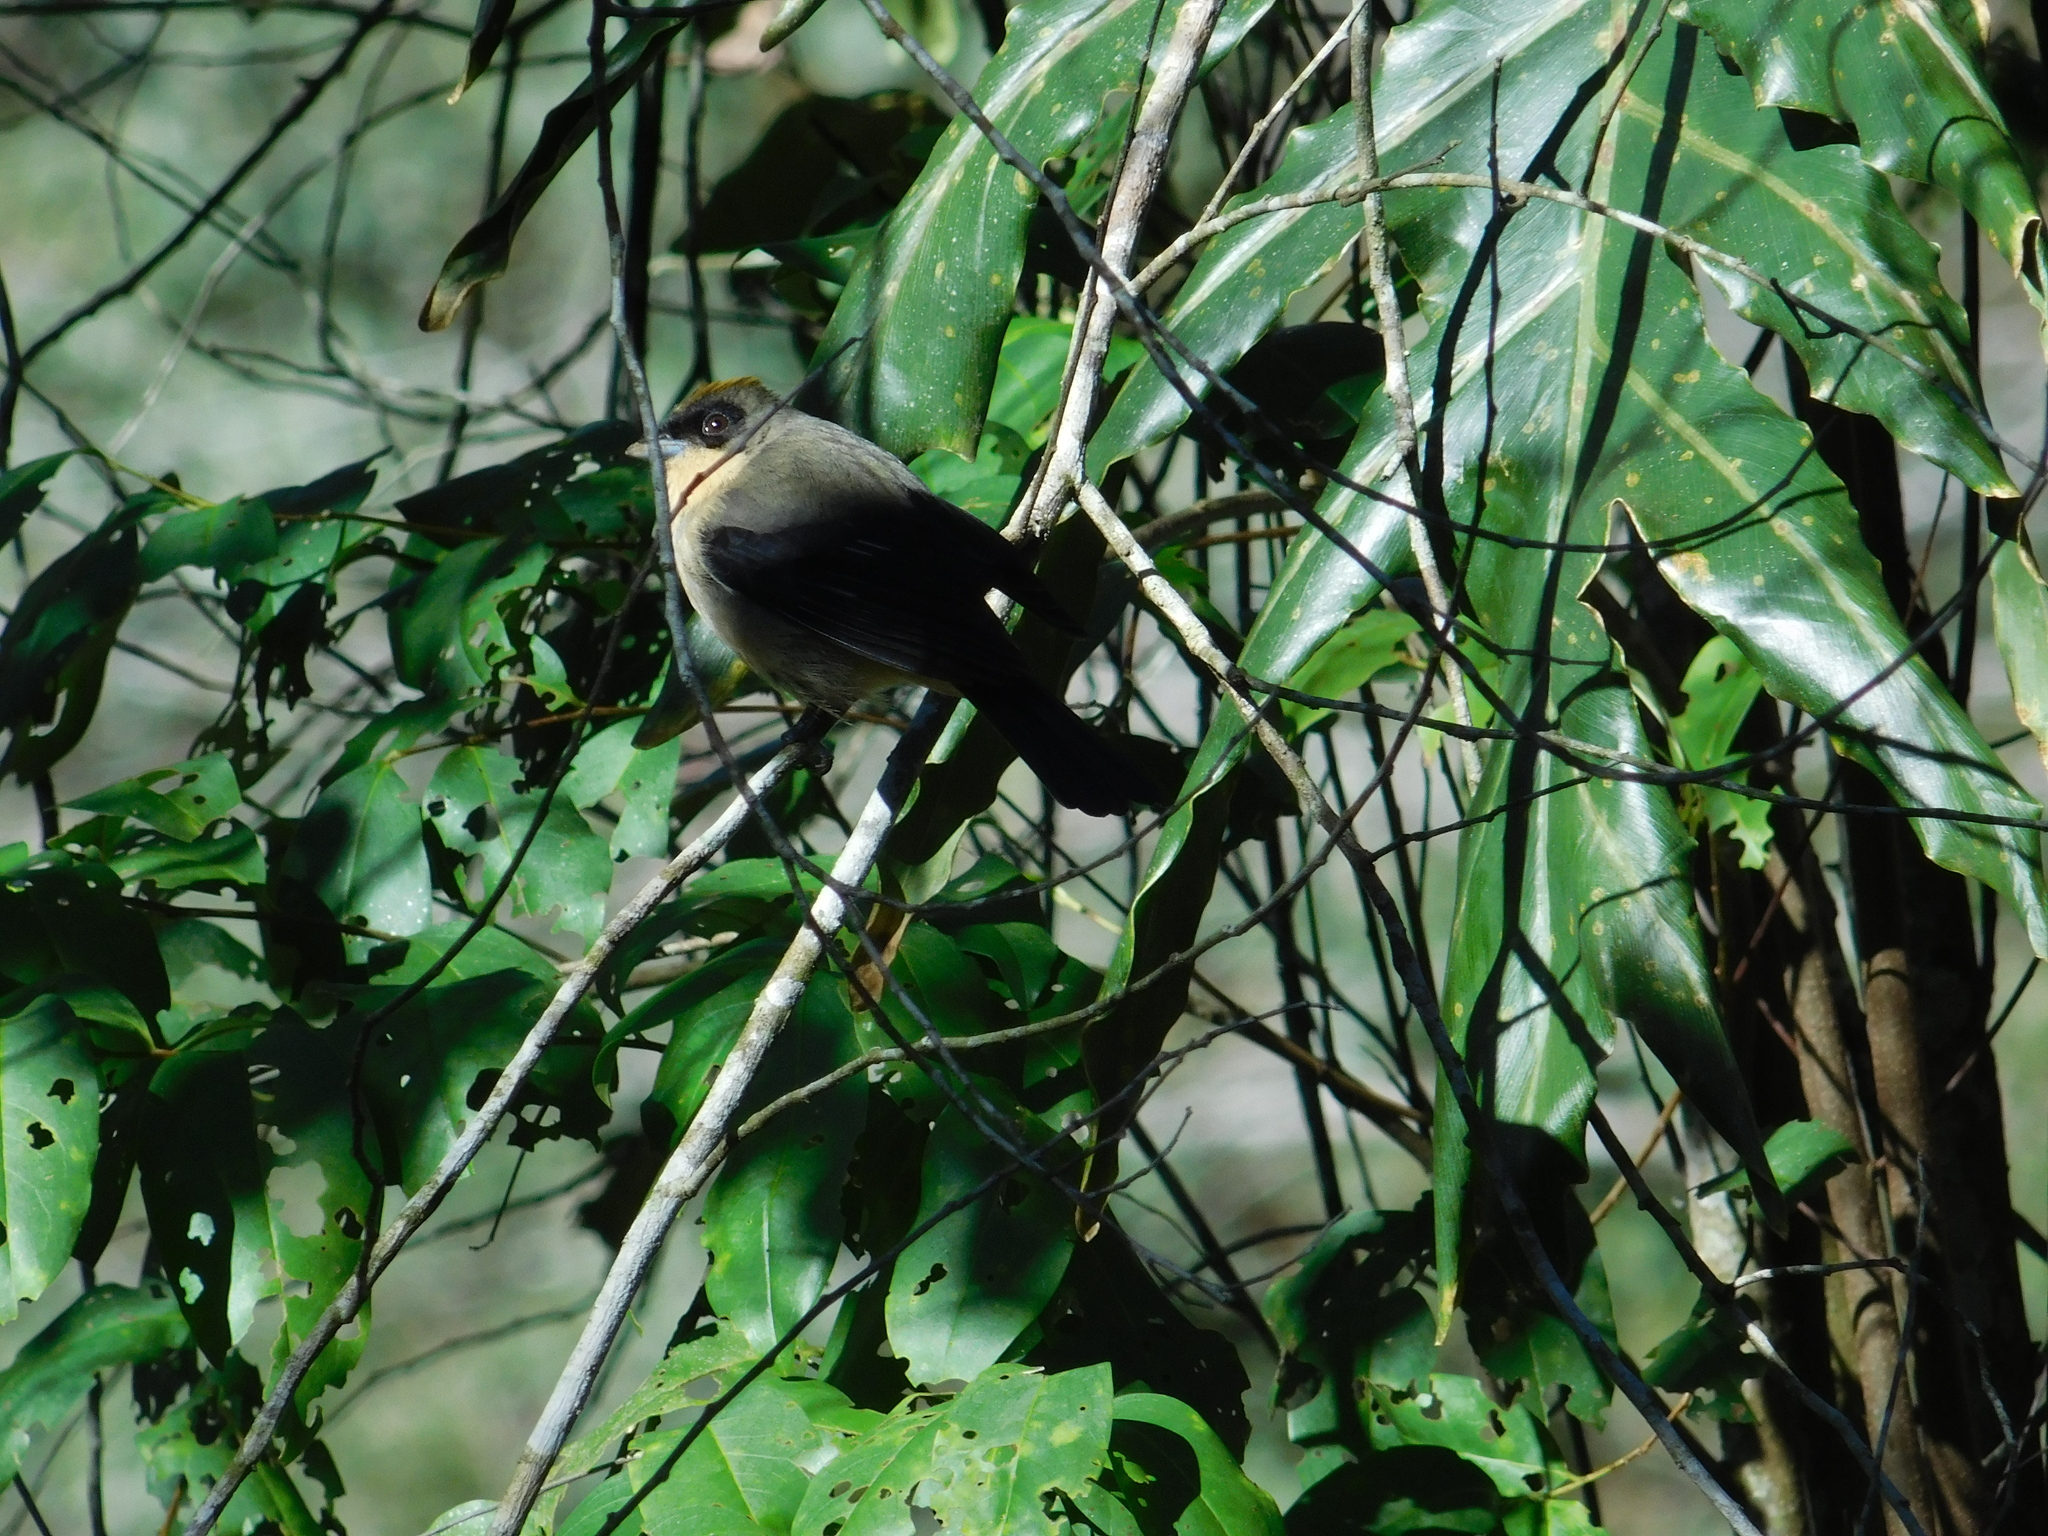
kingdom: Animalia
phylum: Chordata
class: Aves
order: Passeriformes
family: Thraupidae
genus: Trichothraupis
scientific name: Trichothraupis melanops
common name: Black-goggled tanager
